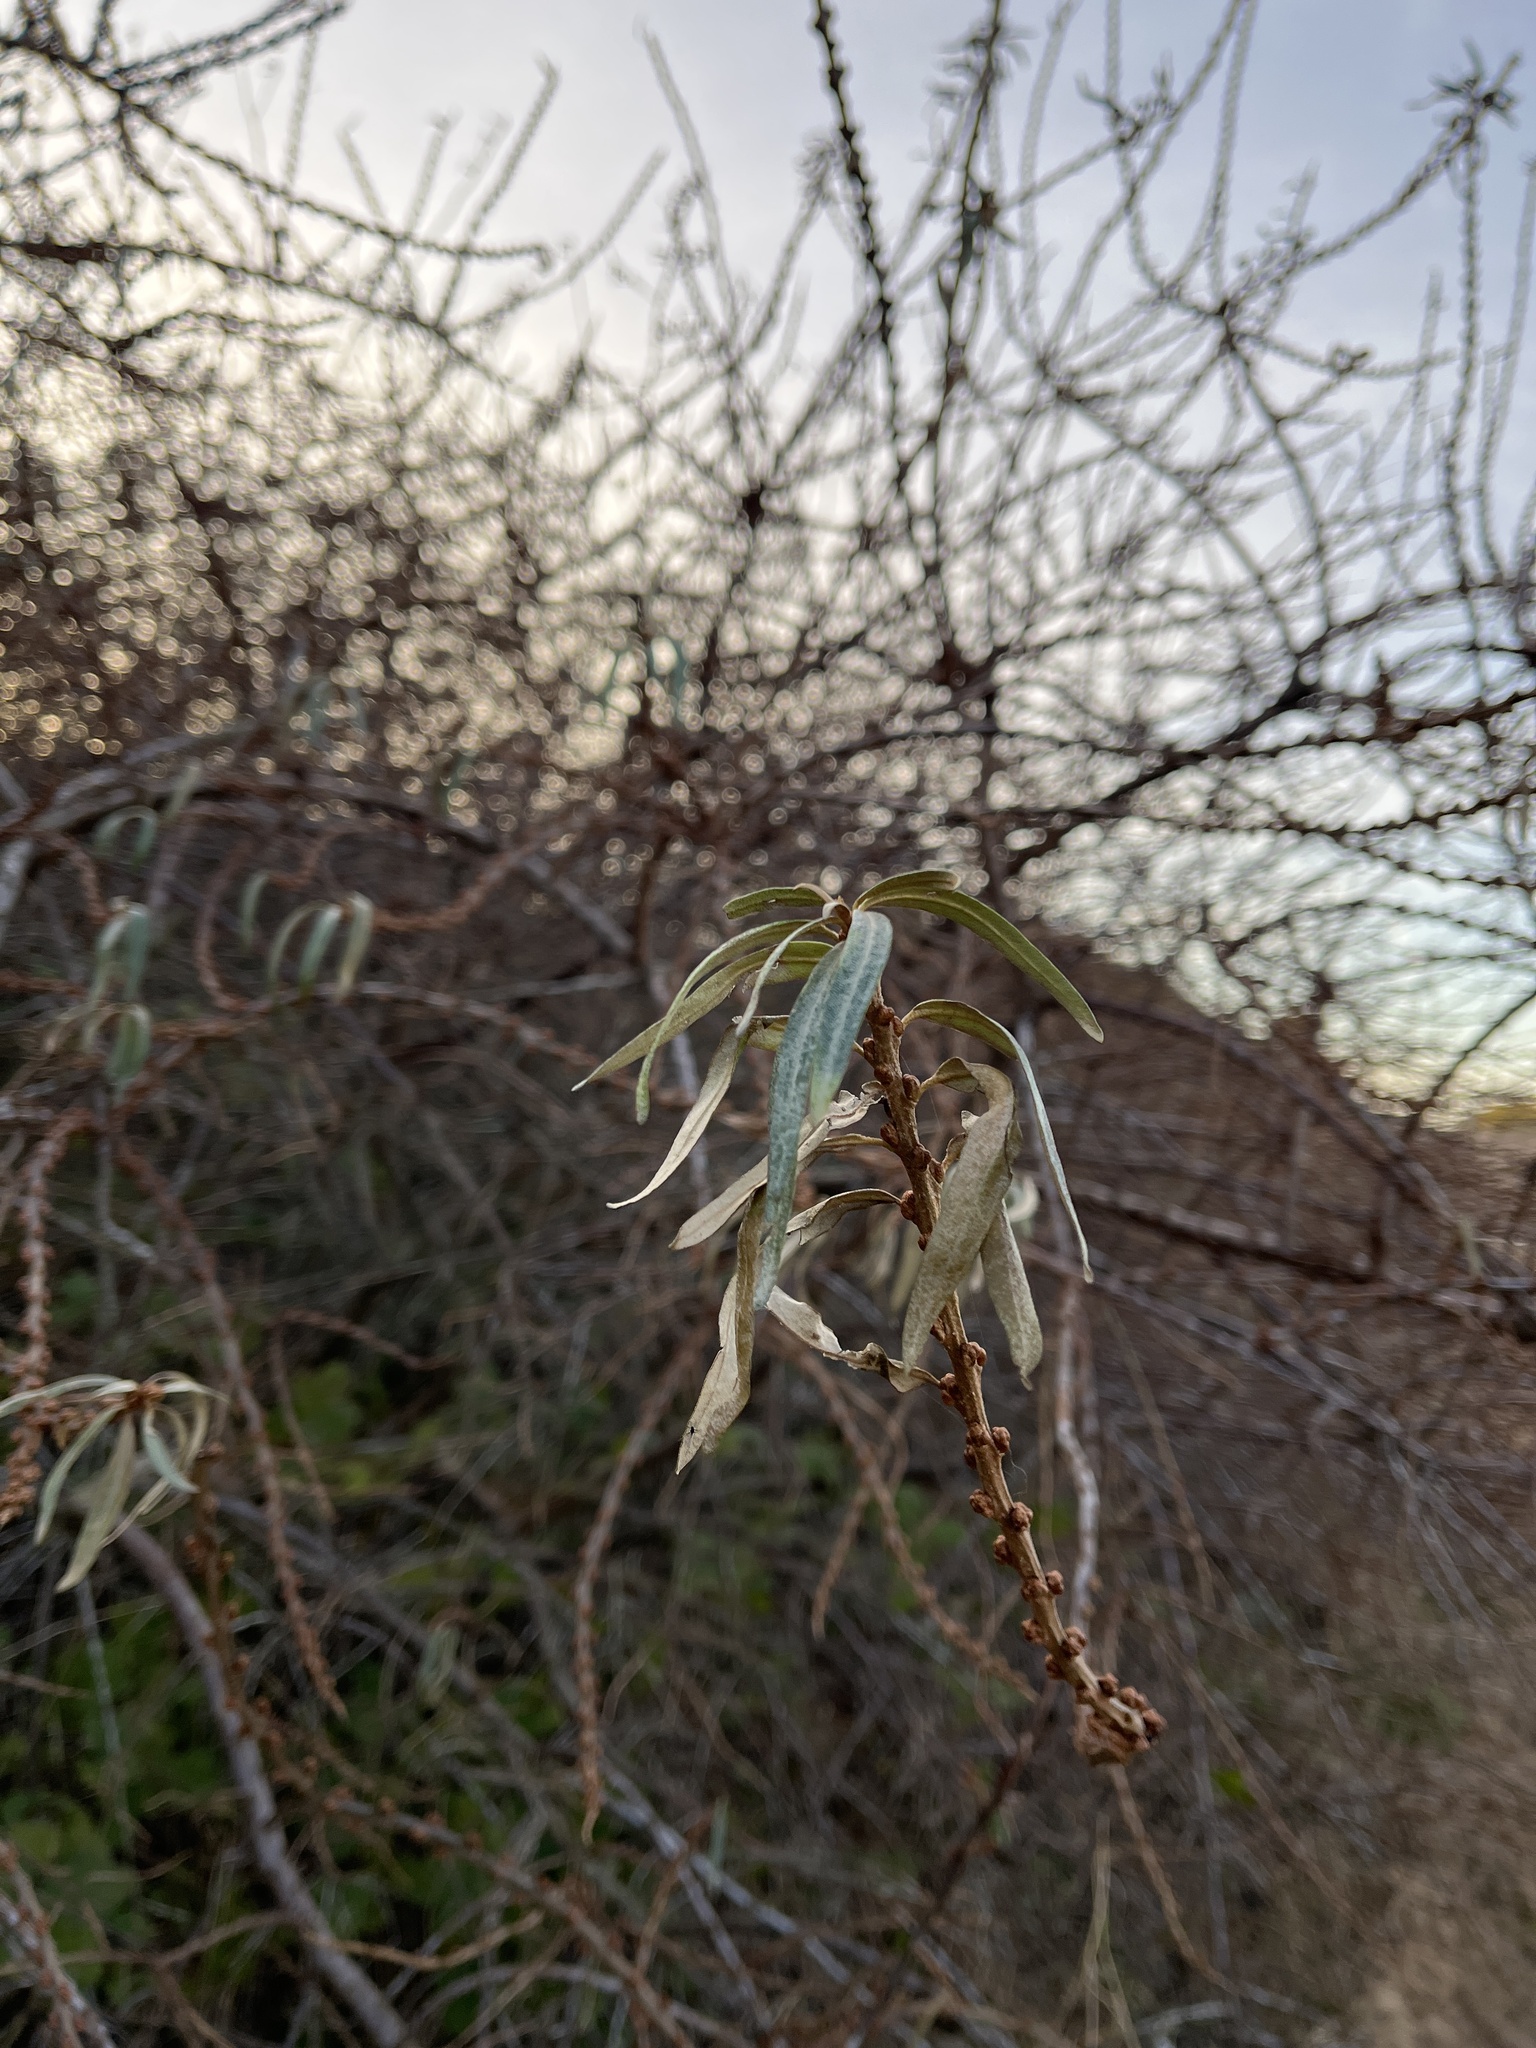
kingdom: Plantae
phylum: Tracheophyta
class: Magnoliopsida
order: Rosales
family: Elaeagnaceae
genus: Hippophae
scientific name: Hippophae rhamnoides
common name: Sea-buckthorn
